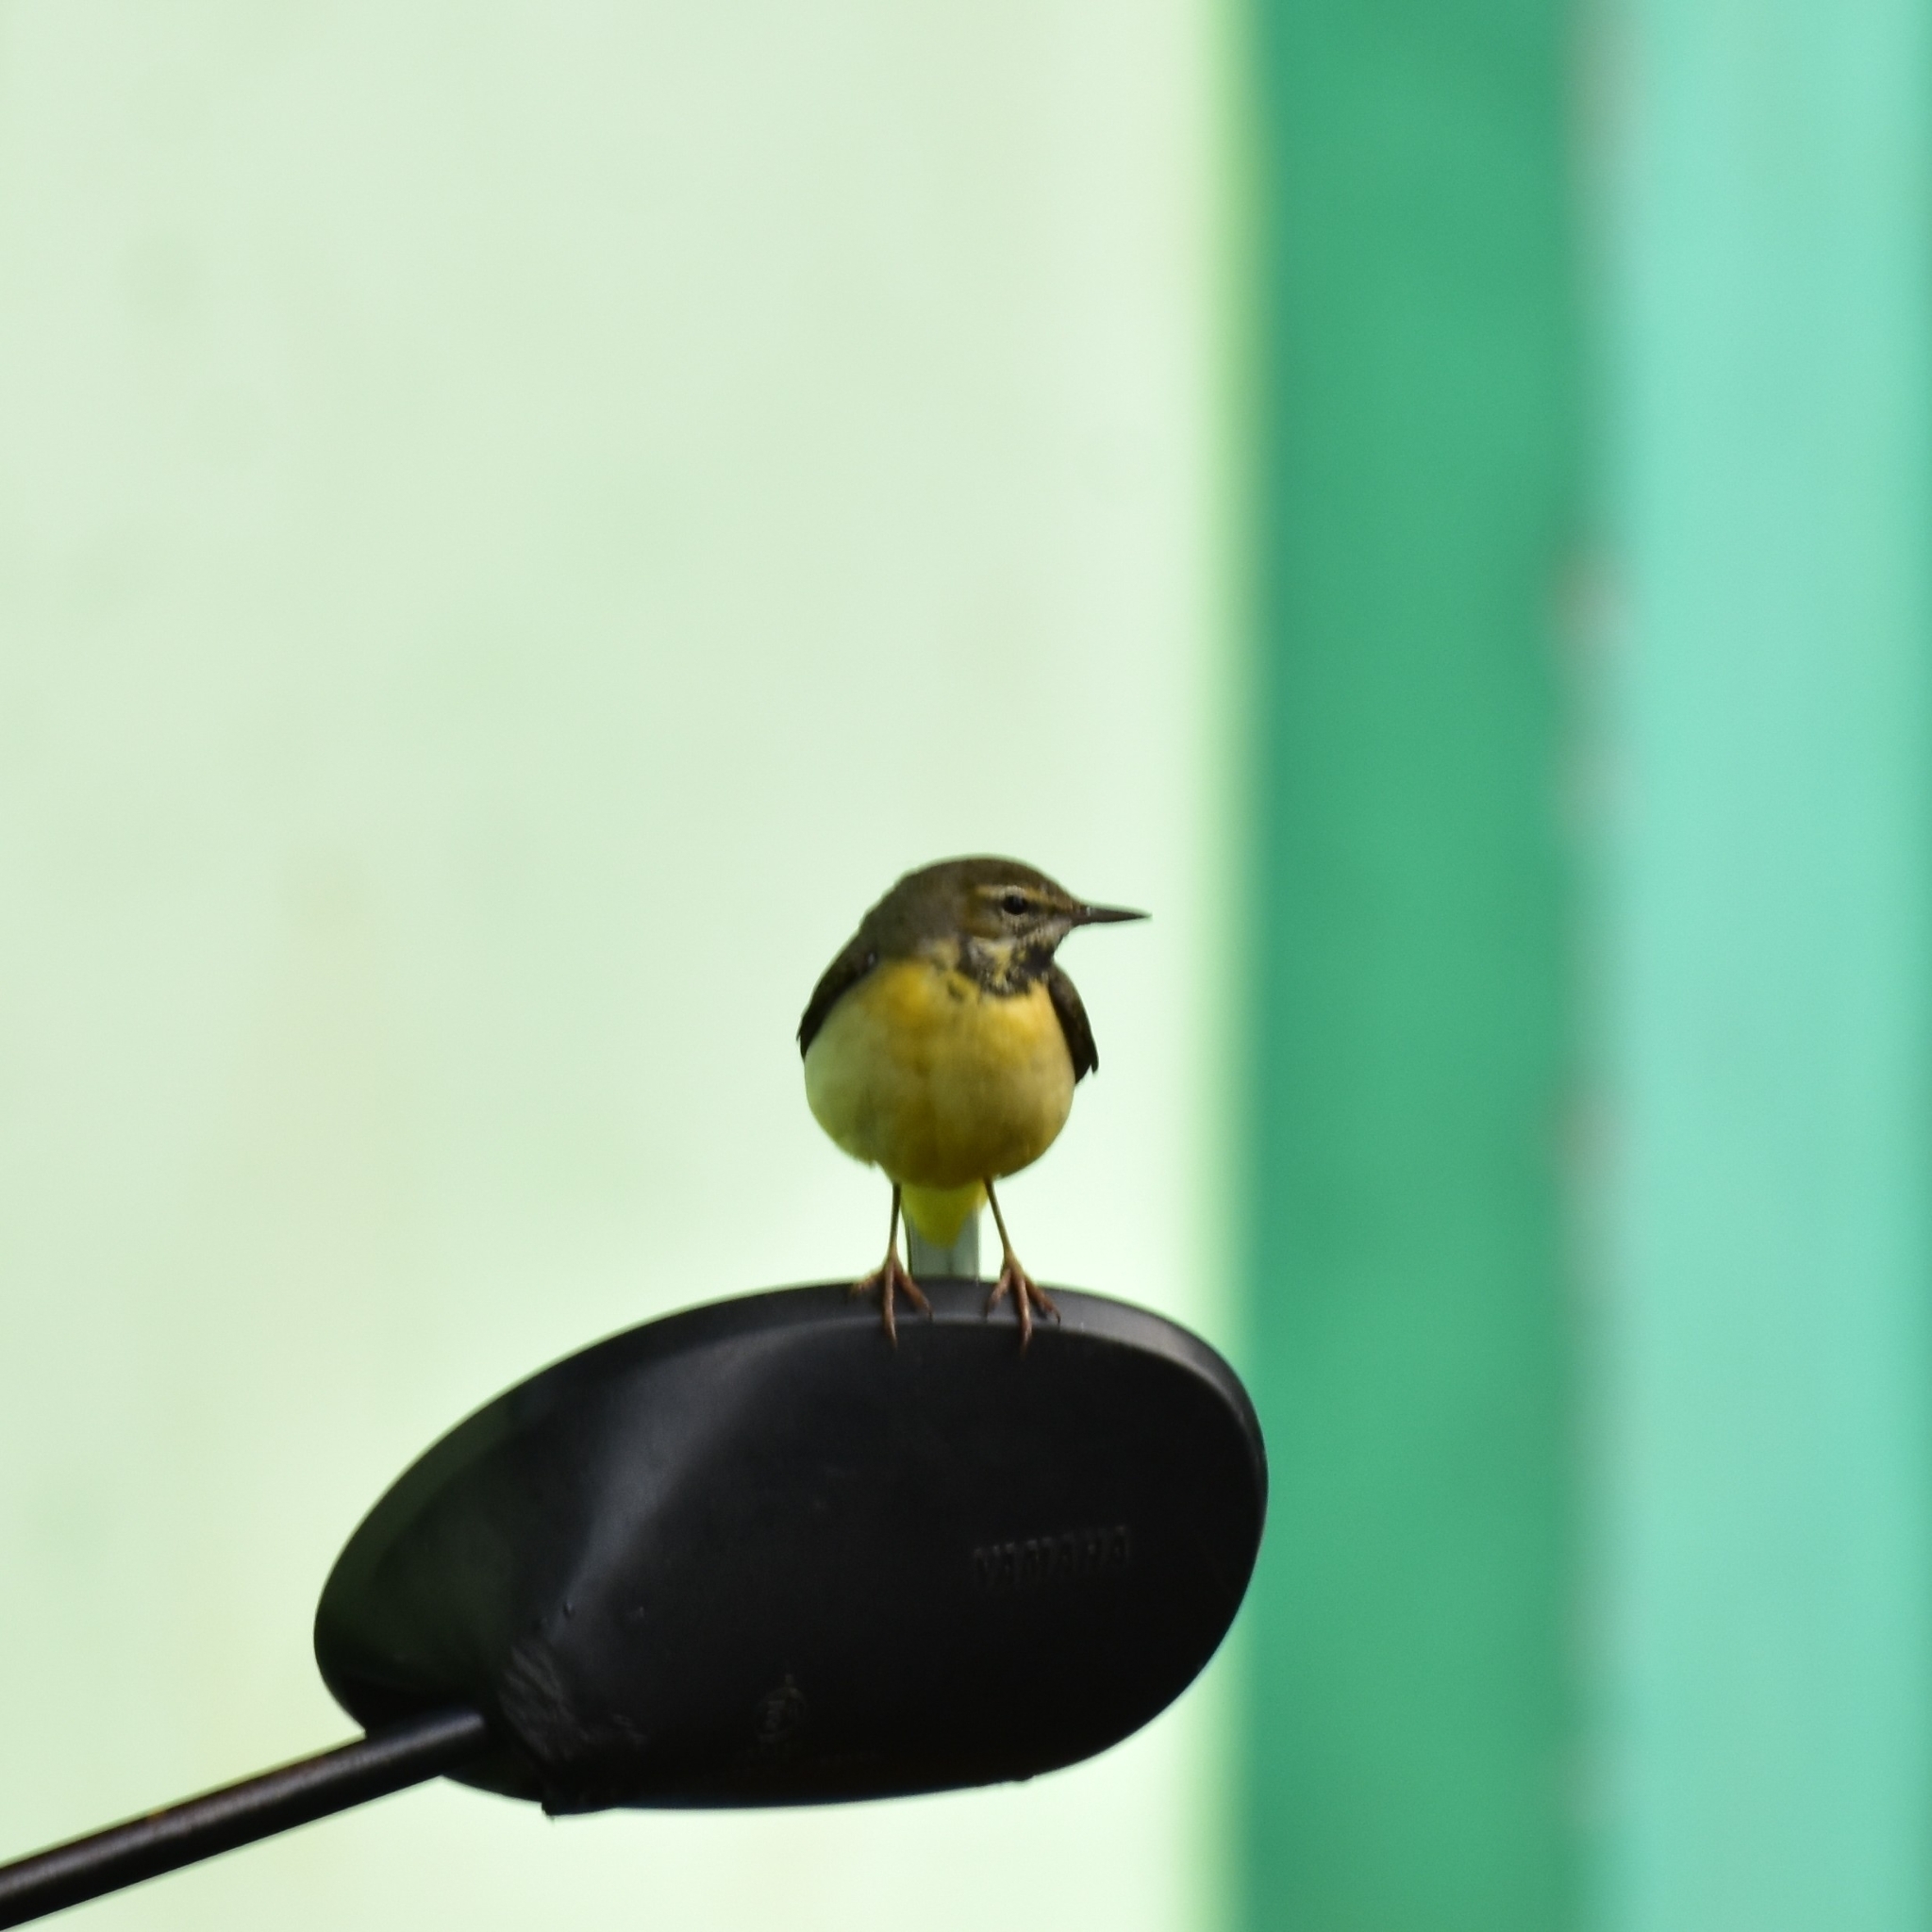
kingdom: Animalia
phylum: Chordata
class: Aves
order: Passeriformes
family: Motacillidae
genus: Motacilla
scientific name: Motacilla cinerea
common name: Grey wagtail
